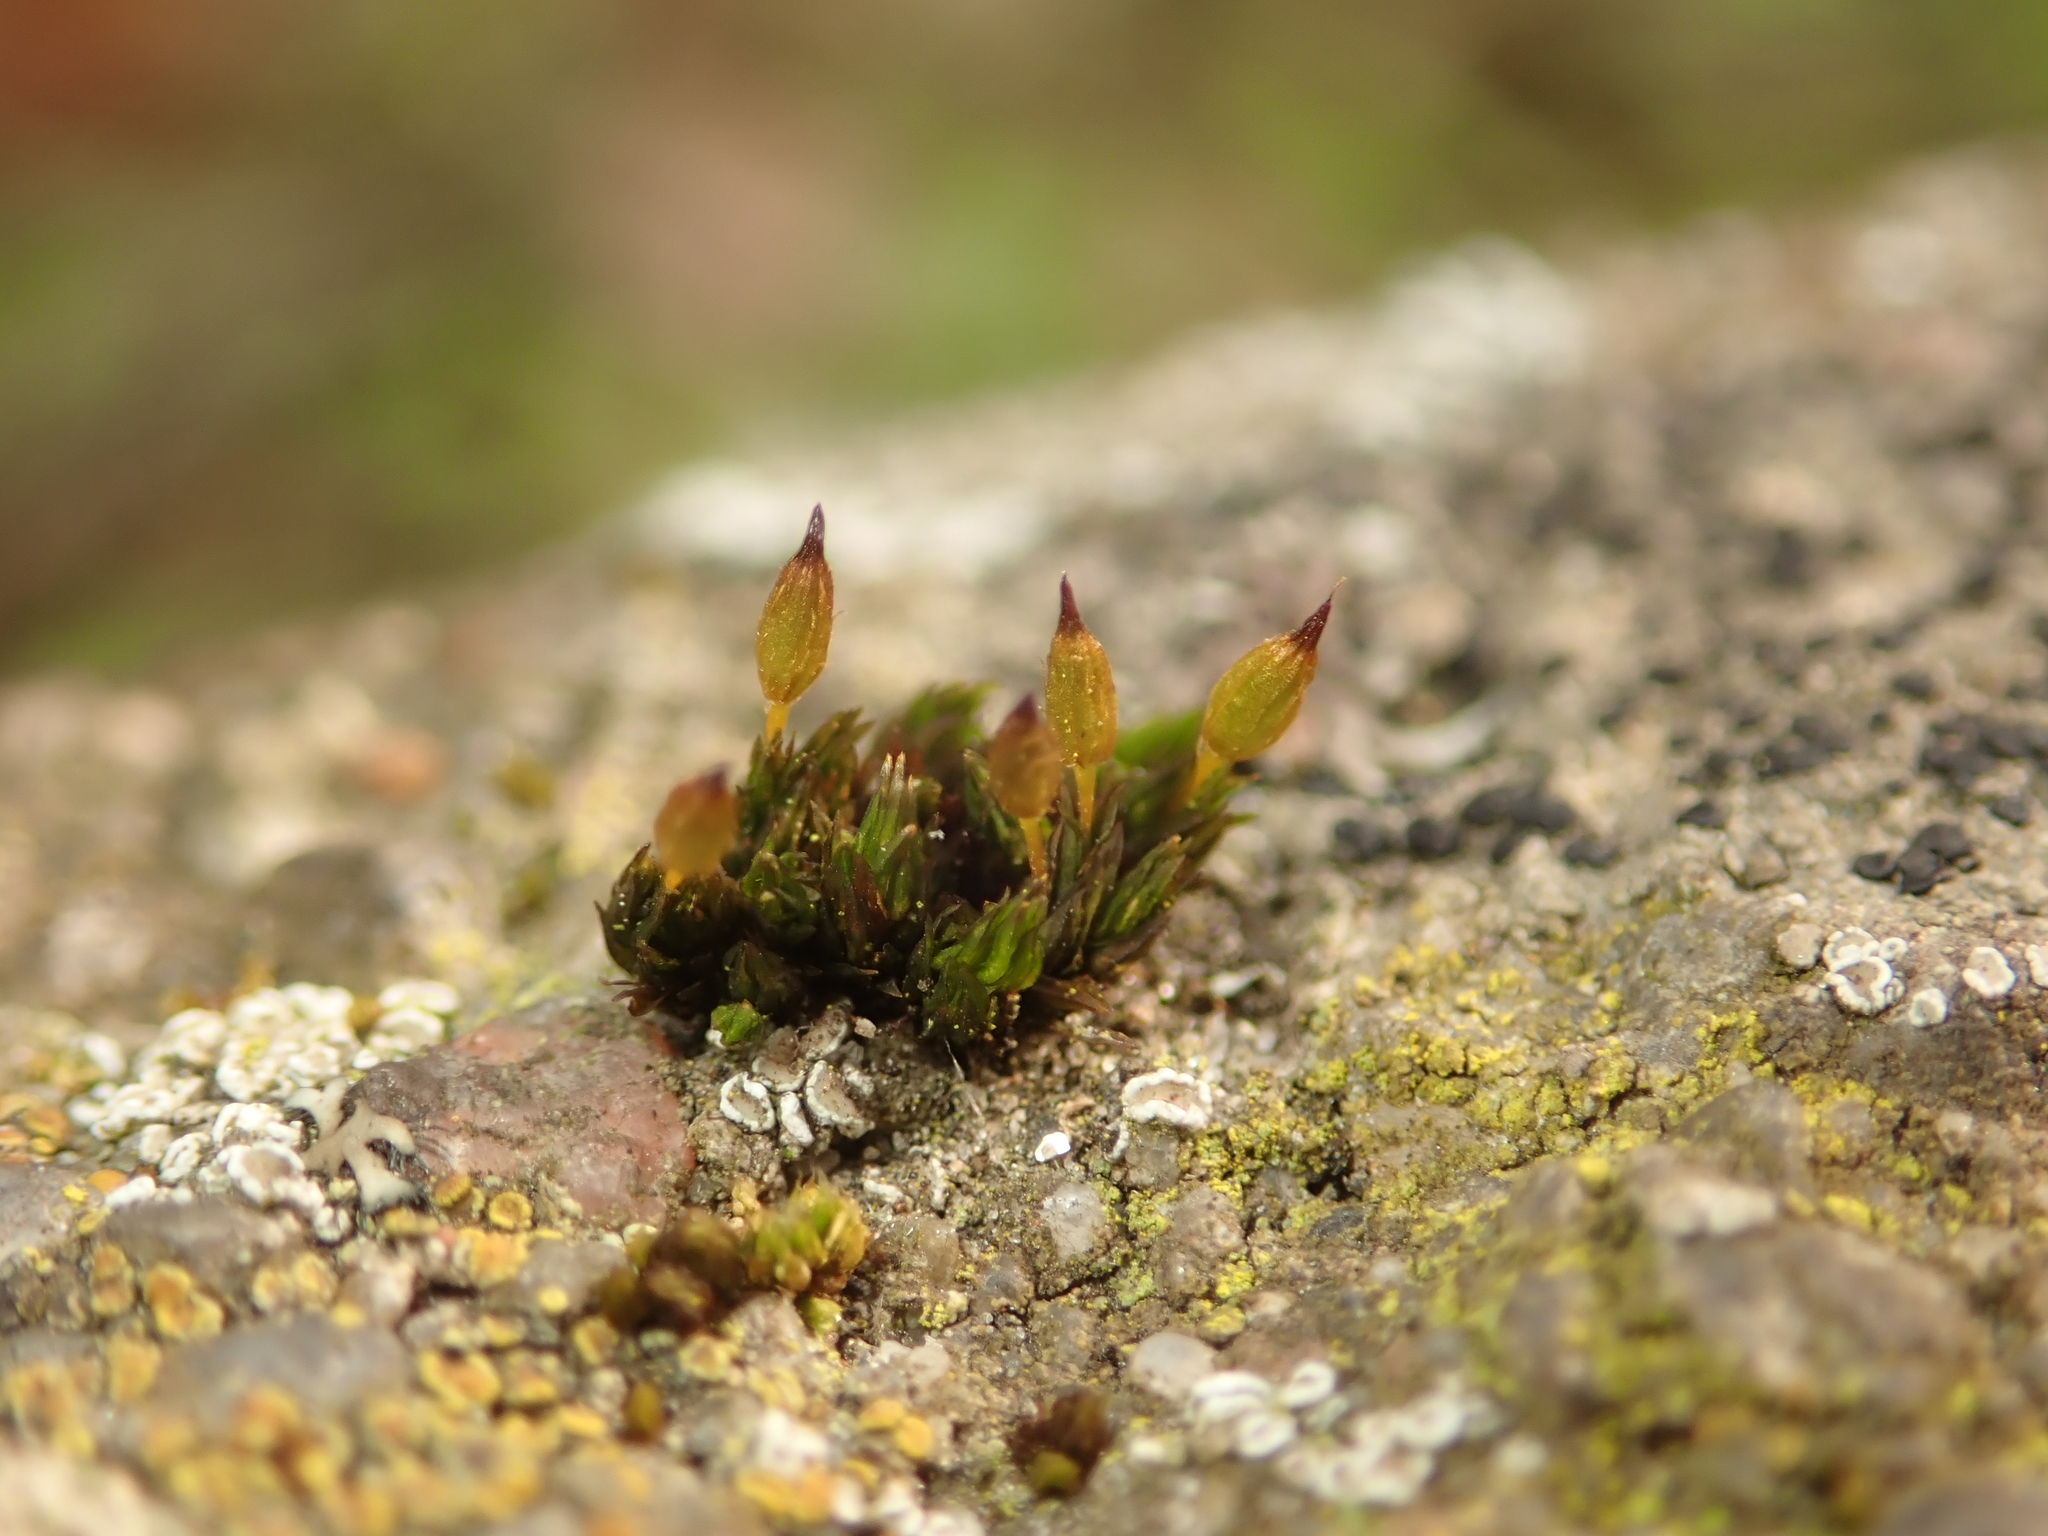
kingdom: Plantae
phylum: Bryophyta
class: Bryopsida
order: Orthotrichales
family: Orthotrichaceae
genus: Orthotrichum
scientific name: Orthotrichum anomalum
